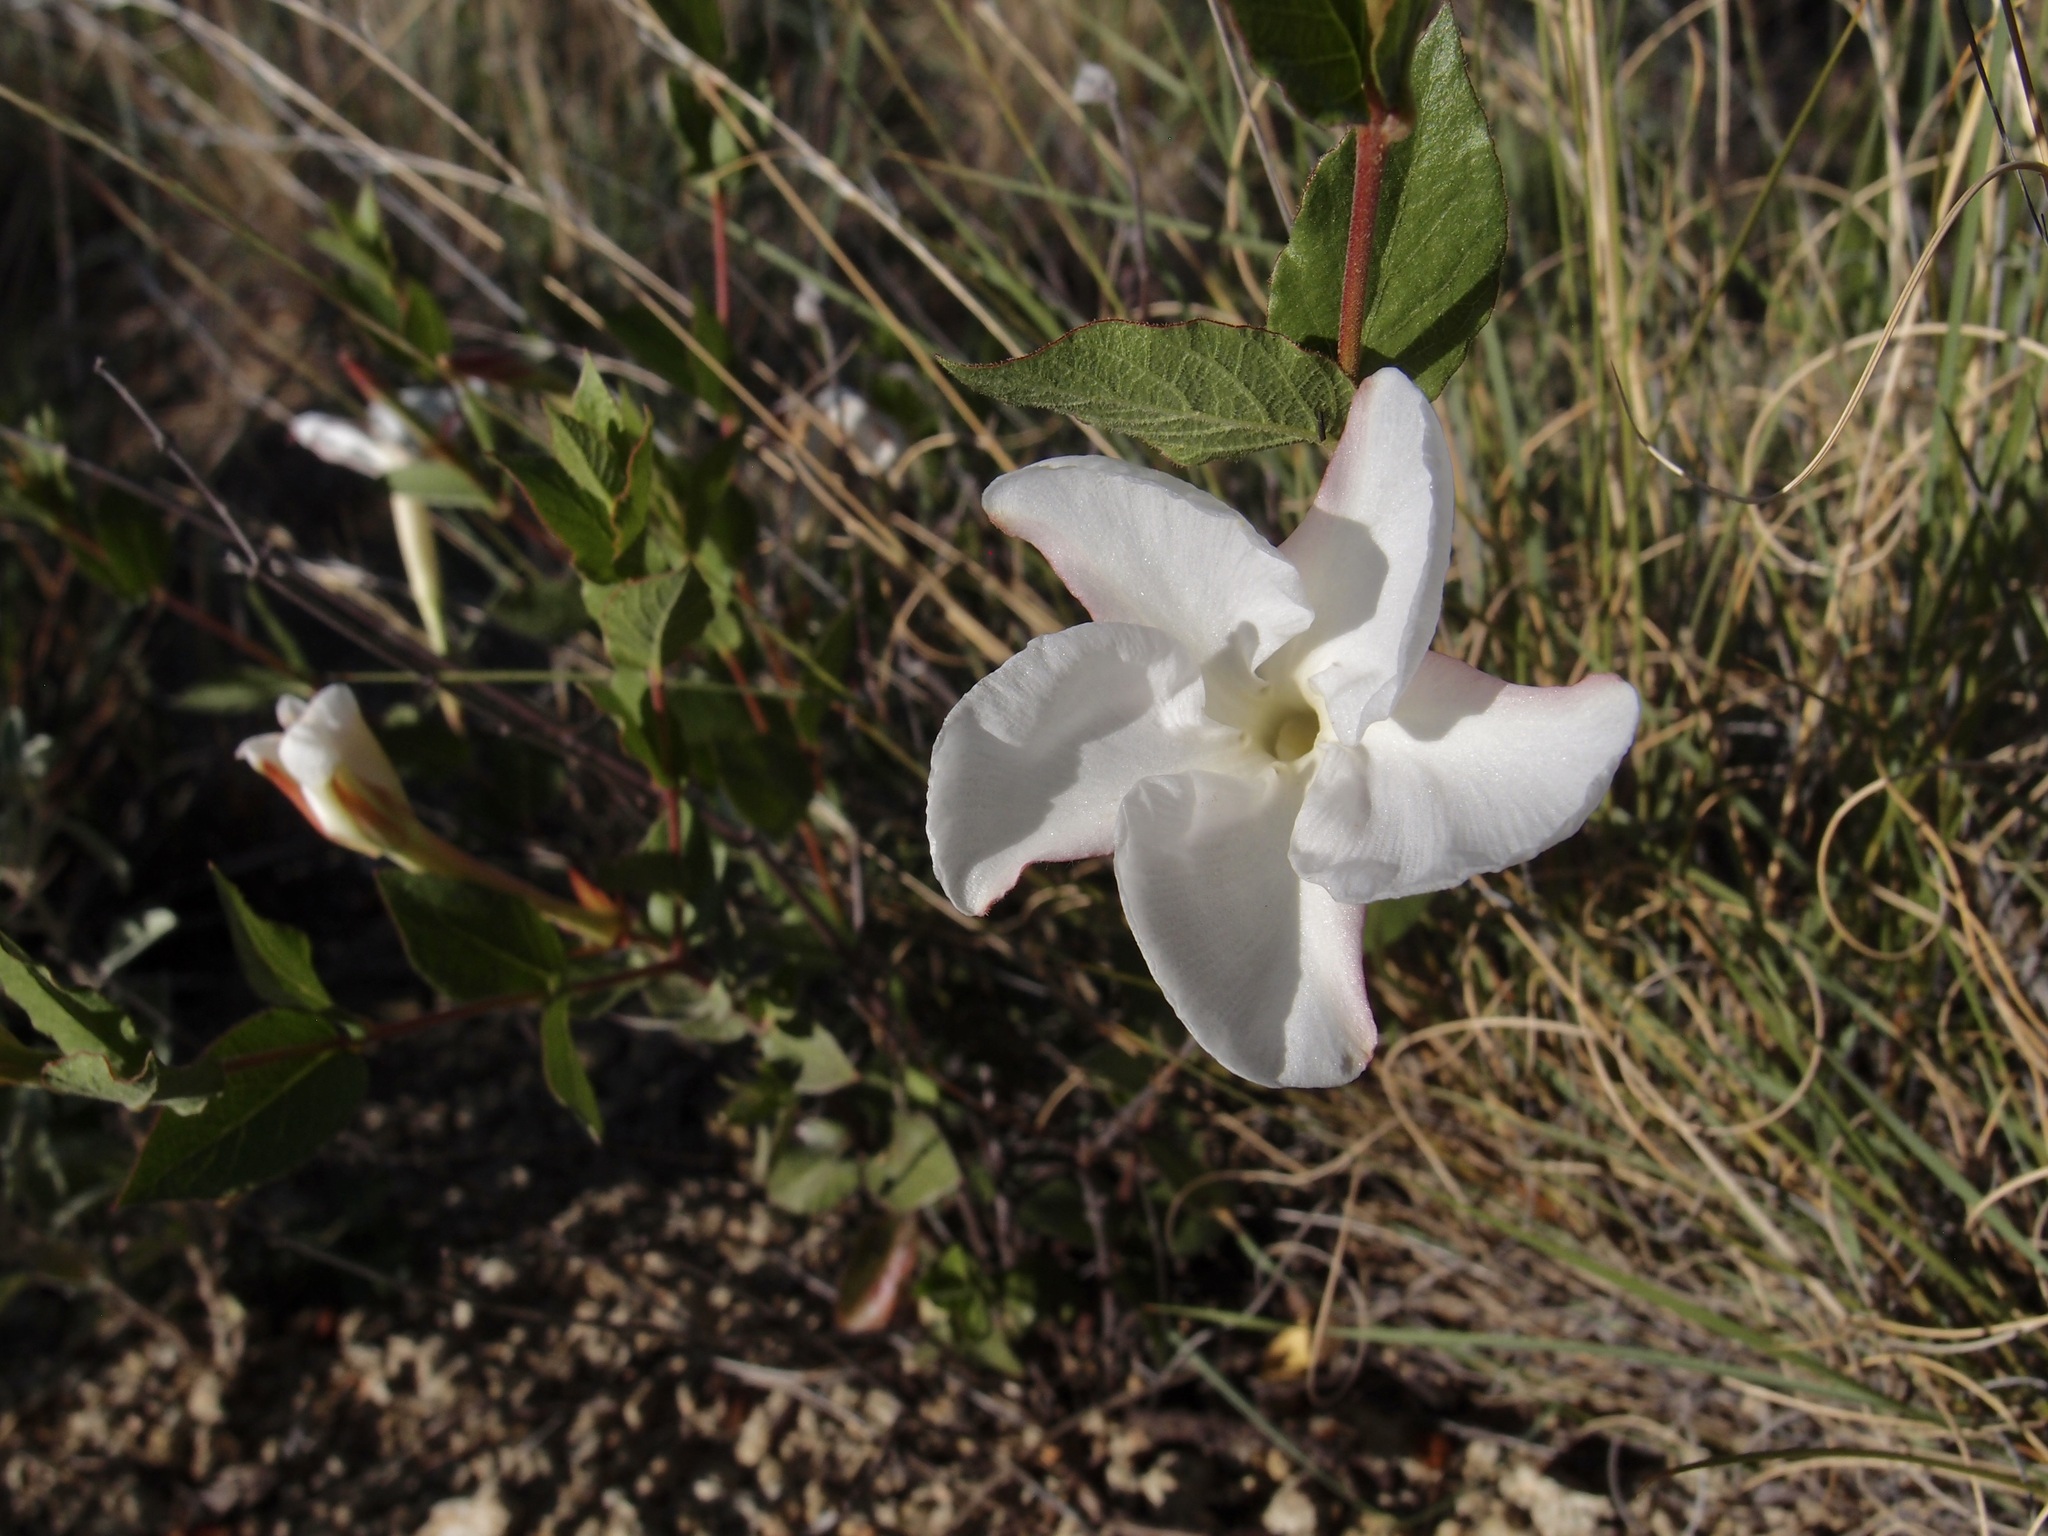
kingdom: Plantae
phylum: Tracheophyta
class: Magnoliopsida
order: Gentianales
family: Apocynaceae
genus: Mandevilla
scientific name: Mandevilla brachysiphon
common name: Huachuca mountain rocktrumpet
